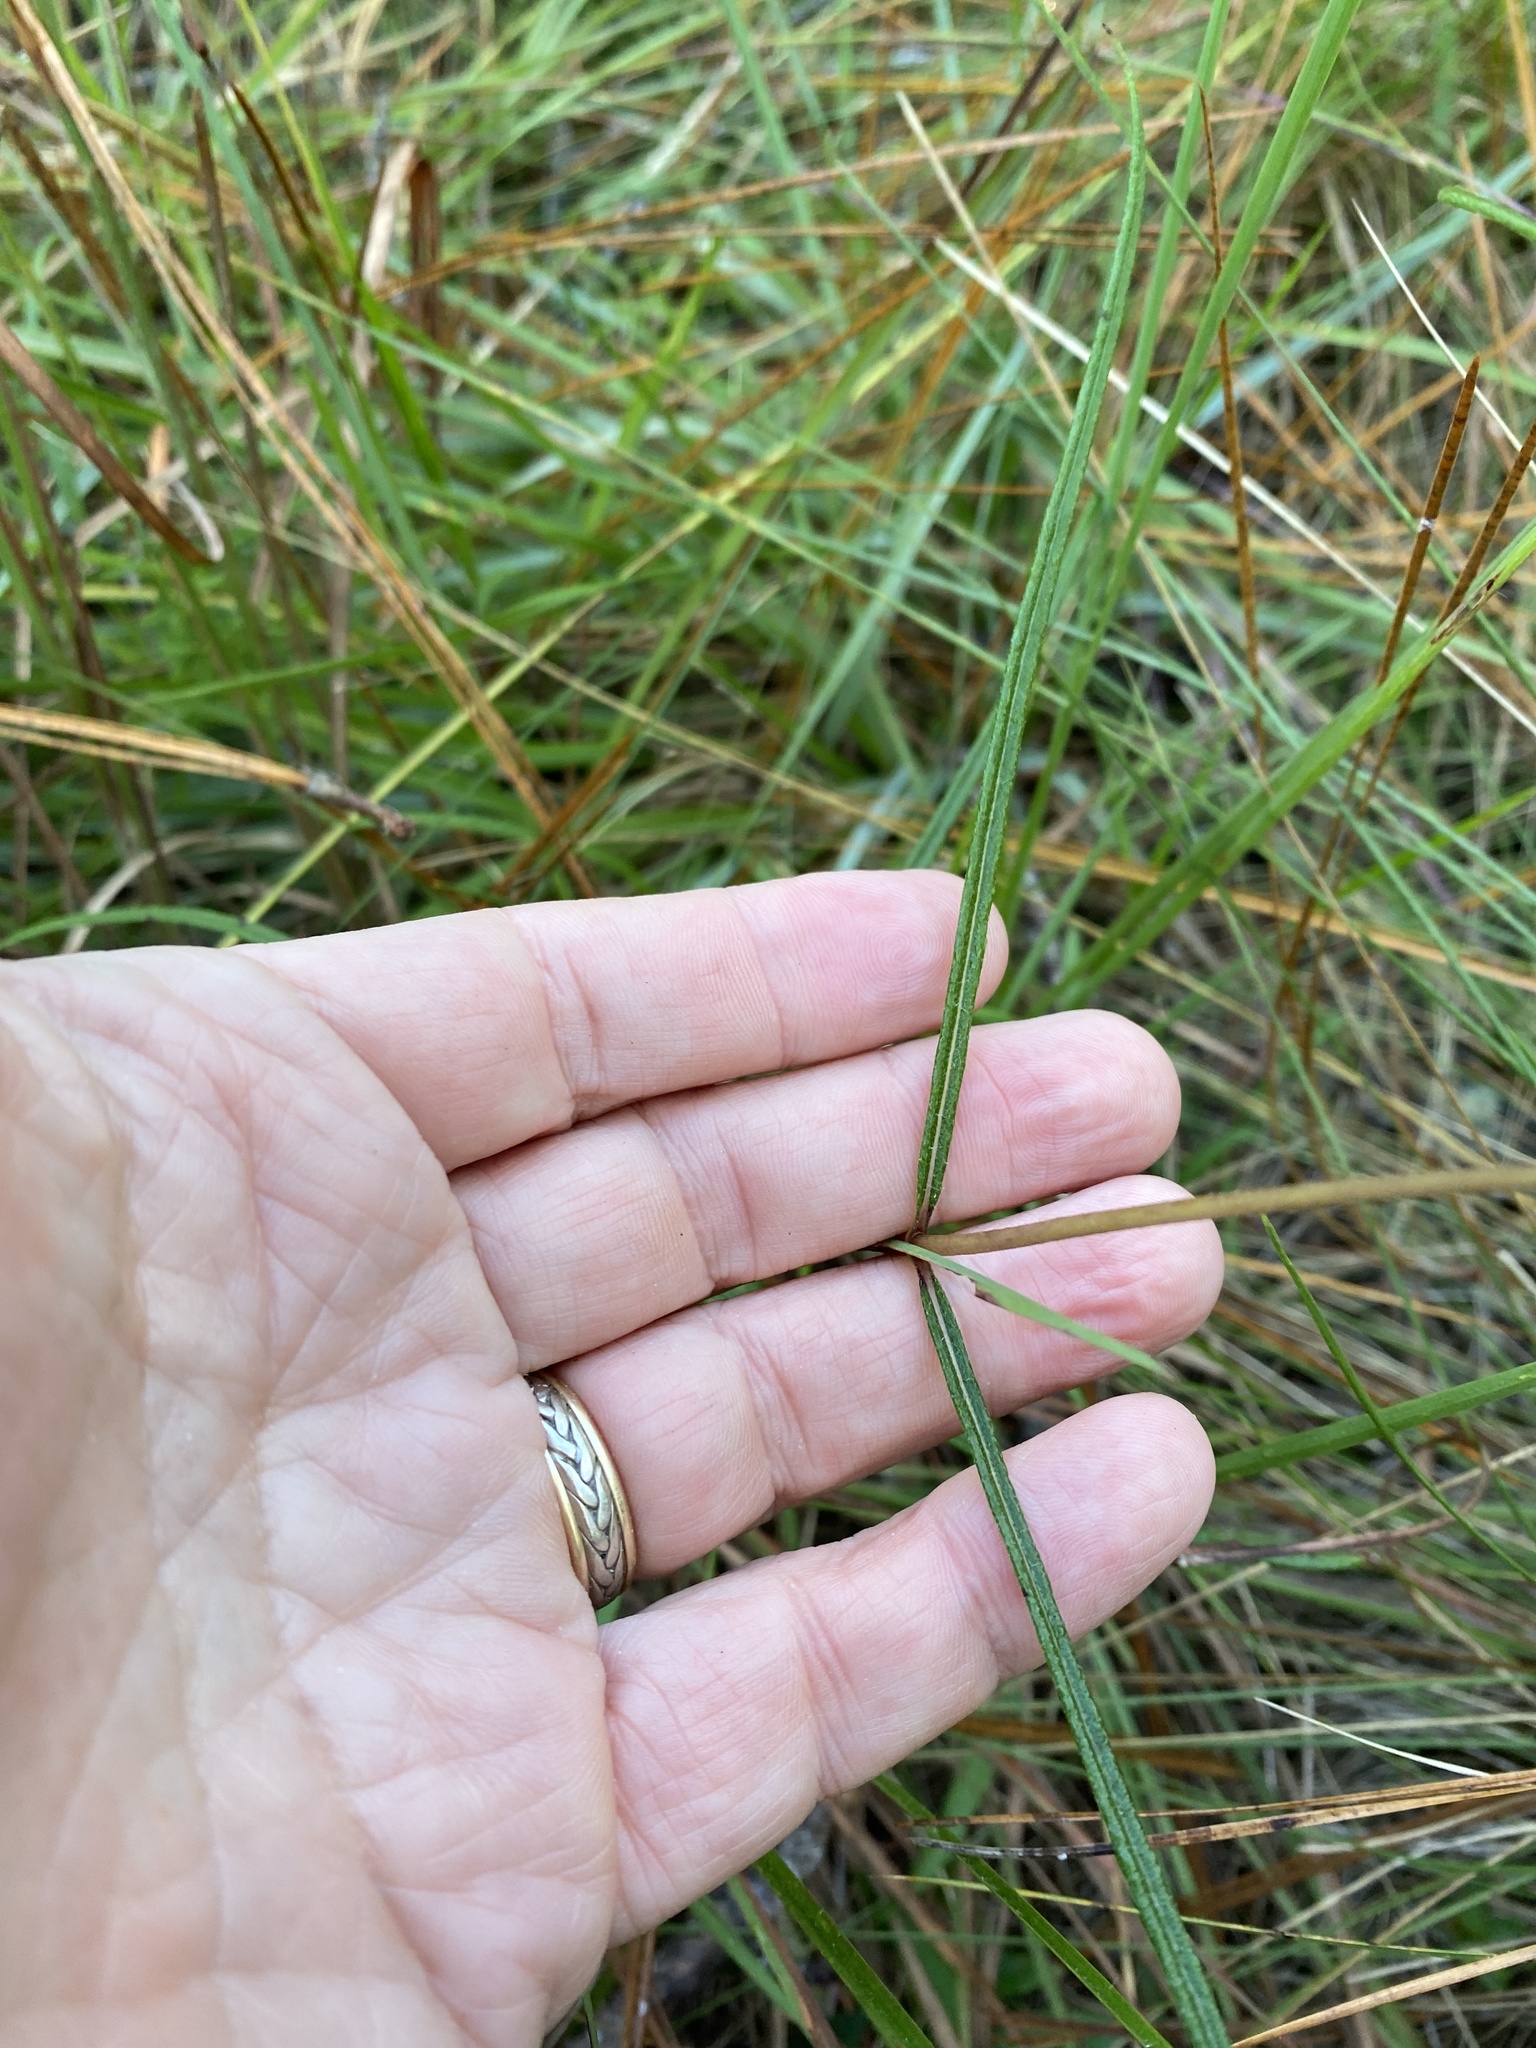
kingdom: Plantae
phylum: Tracheophyta
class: Magnoliopsida
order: Asterales
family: Asteraceae
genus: Helianthus
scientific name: Helianthus angustifolius
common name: Swamp sunflower
